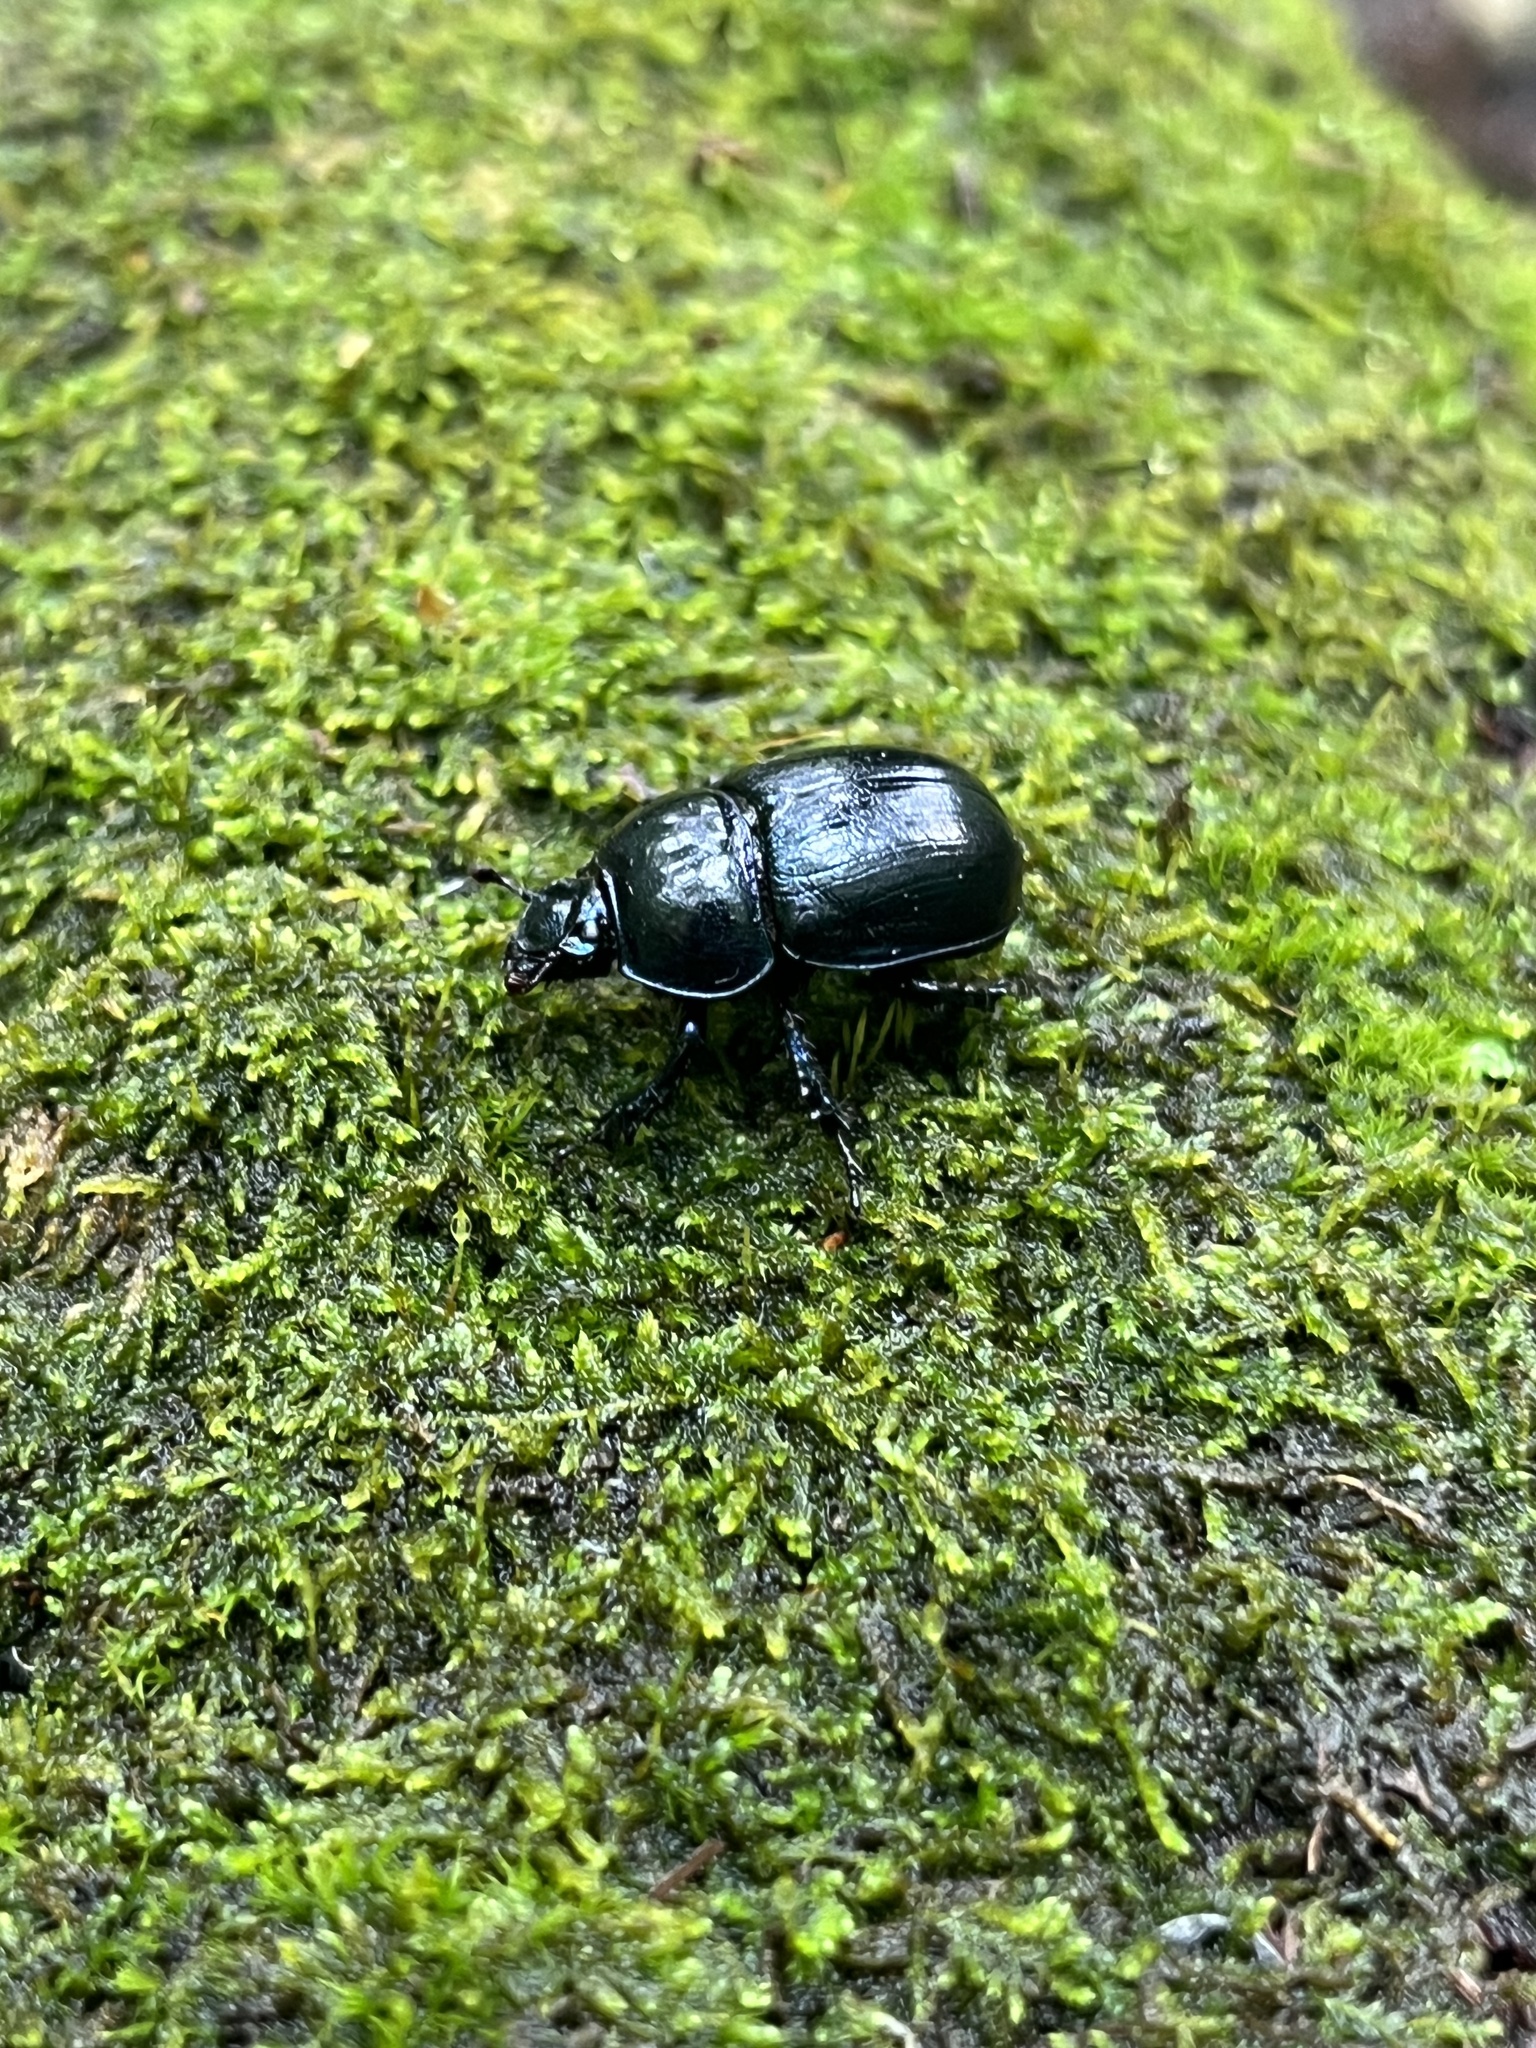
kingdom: Animalia
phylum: Arthropoda
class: Insecta
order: Coleoptera
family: Geotrupidae
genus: Anoplotrupes
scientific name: Anoplotrupes stercorosus
